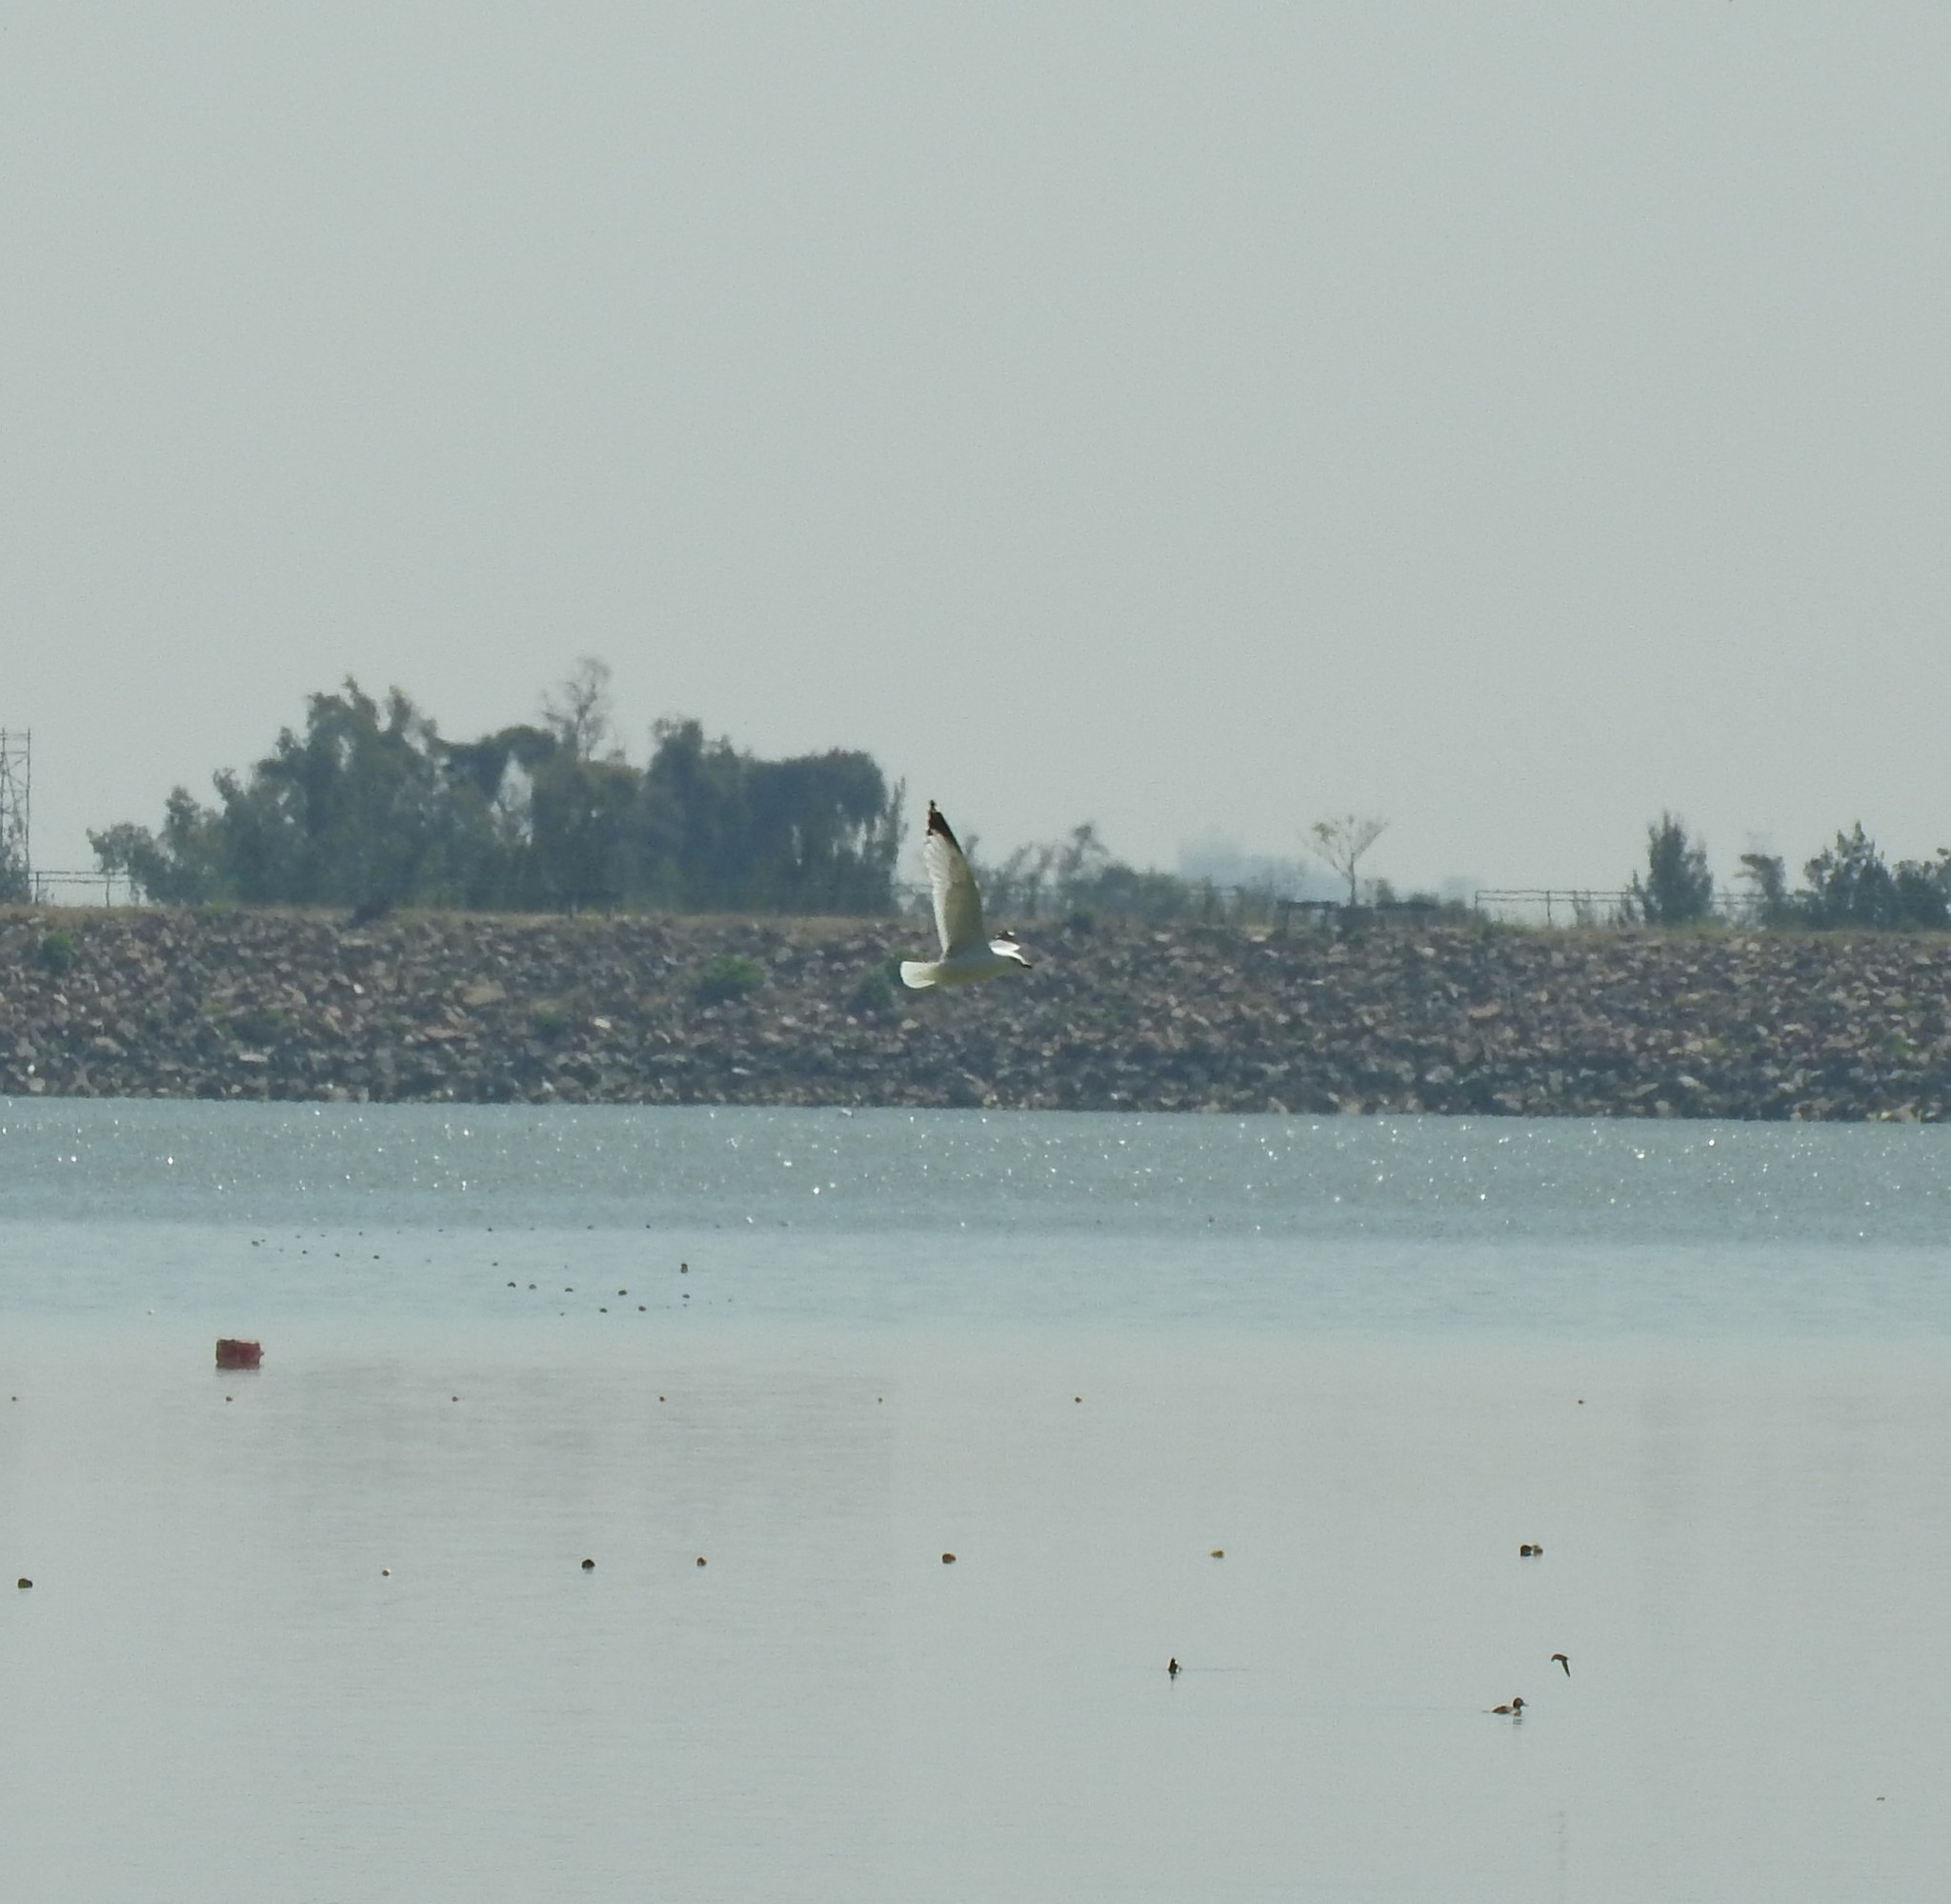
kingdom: Animalia
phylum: Chordata
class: Aves
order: Charadriiformes
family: Laridae
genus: Larus
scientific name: Larus delawarensis
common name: Ring-billed gull
